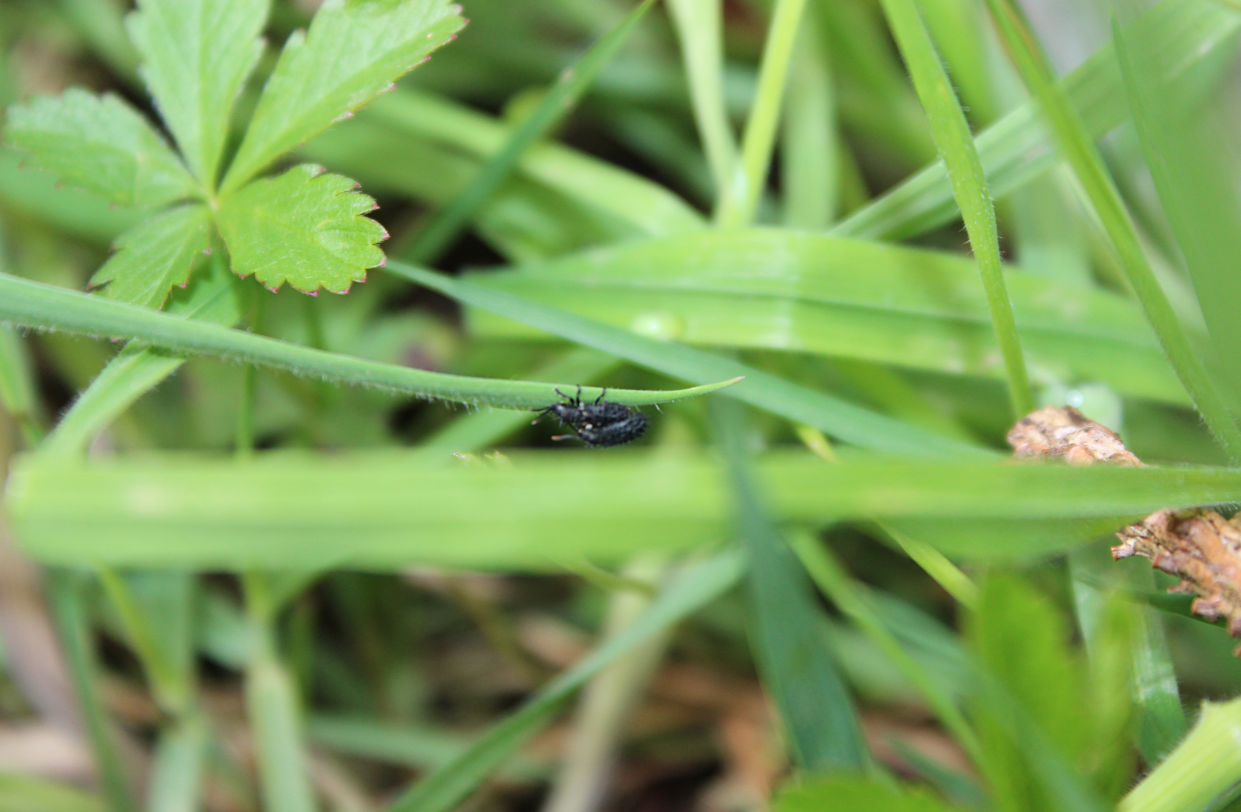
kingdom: Animalia
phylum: Arthropoda
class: Insecta
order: Coleoptera
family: Chrysomelidae
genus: Hispa
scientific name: Hispa atra
